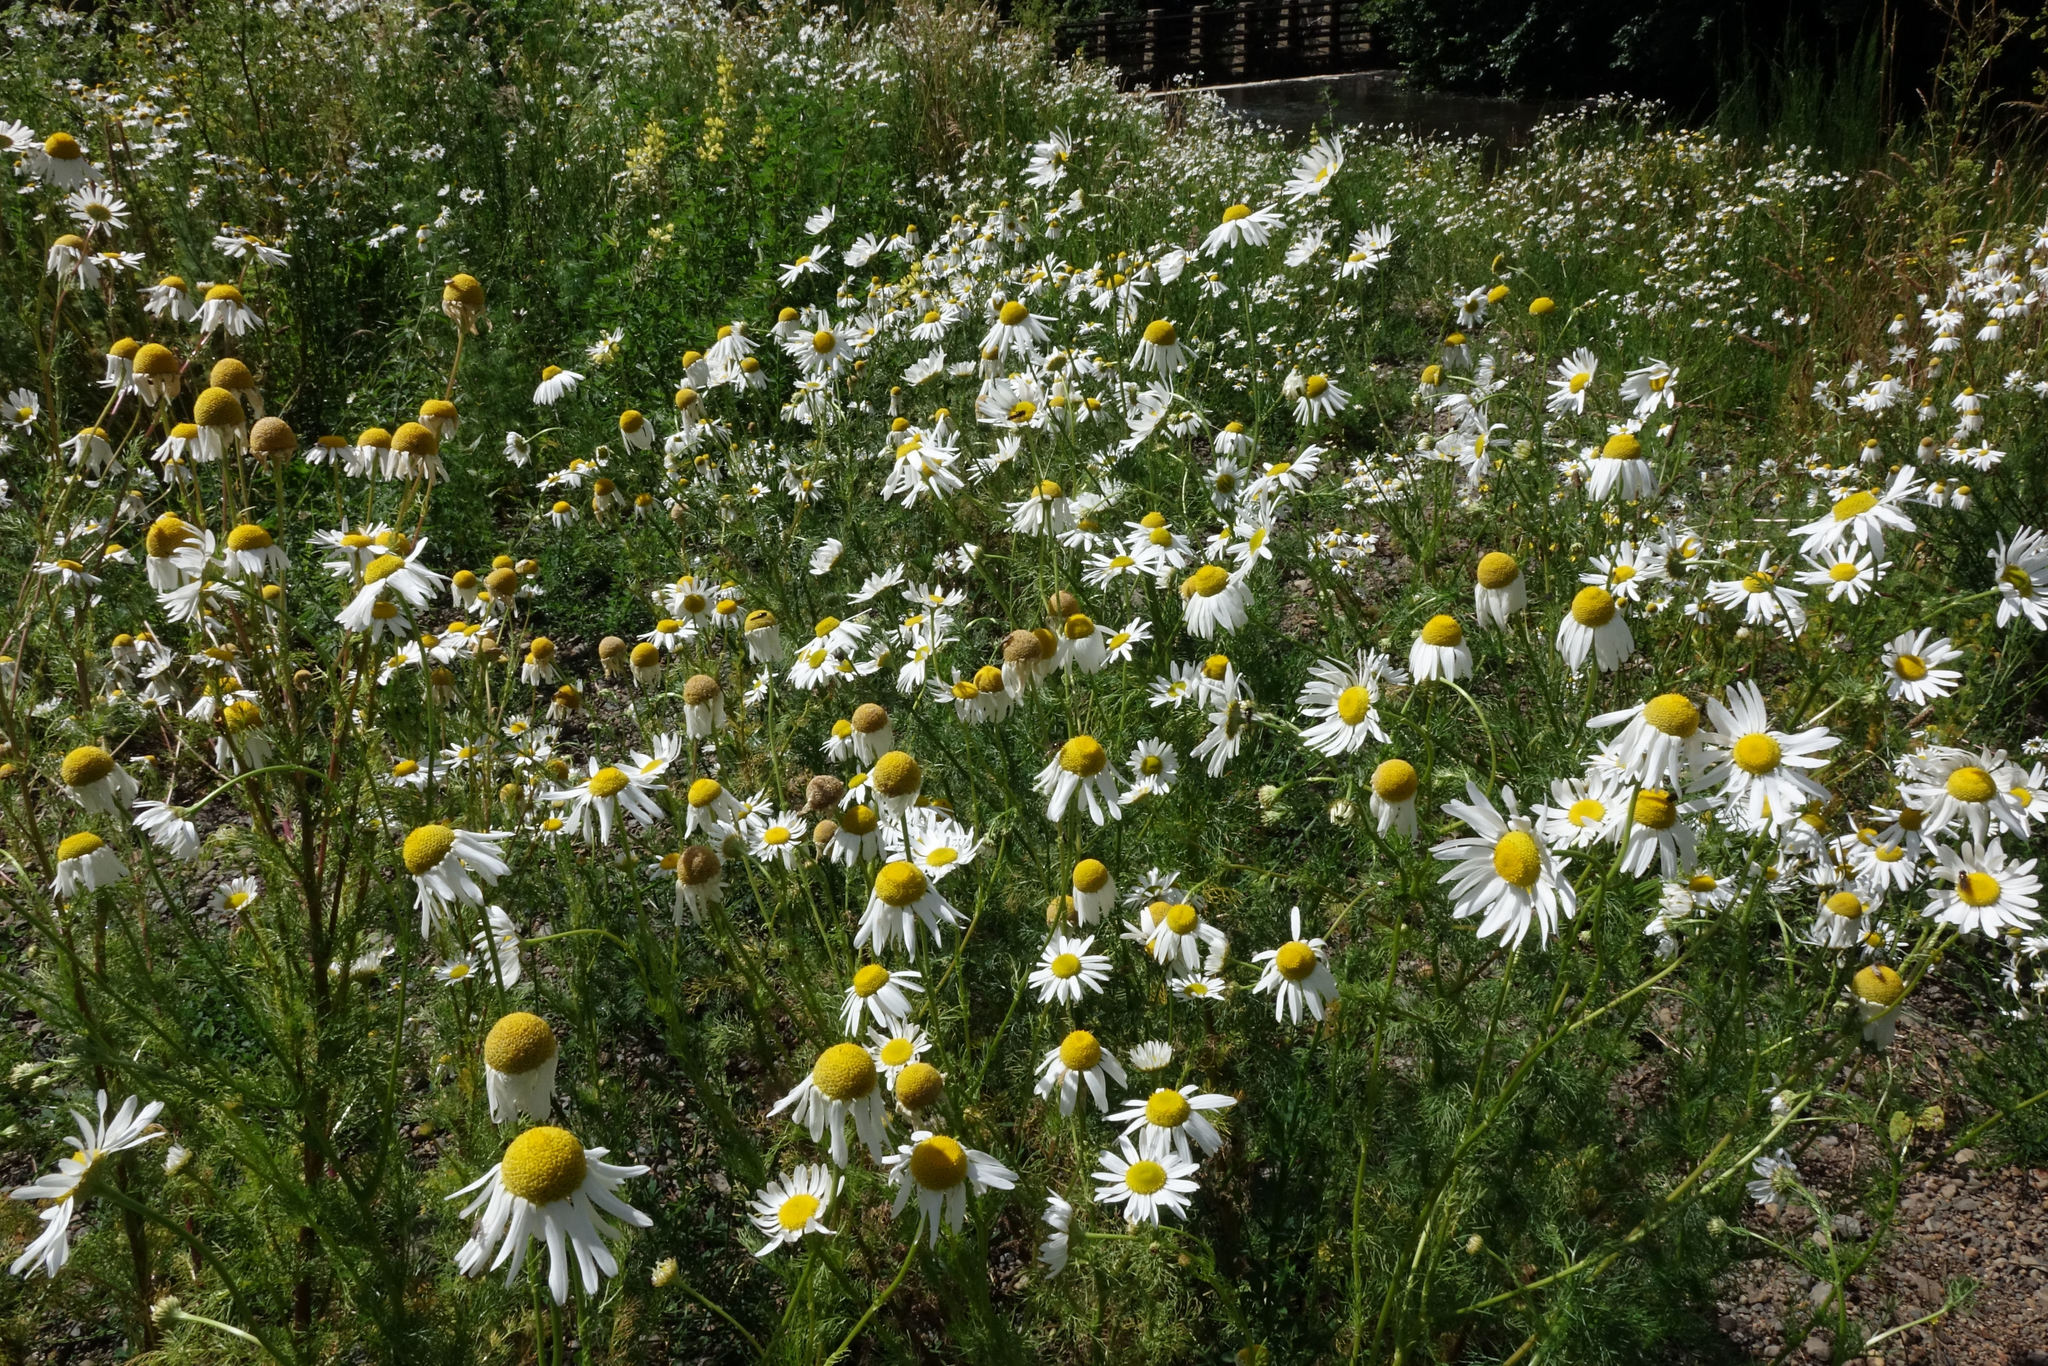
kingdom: Plantae
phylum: Tracheophyta
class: Magnoliopsida
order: Asterales
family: Asteraceae
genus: Tripleurospermum
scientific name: Tripleurospermum inodorum
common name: Scentless mayweed
